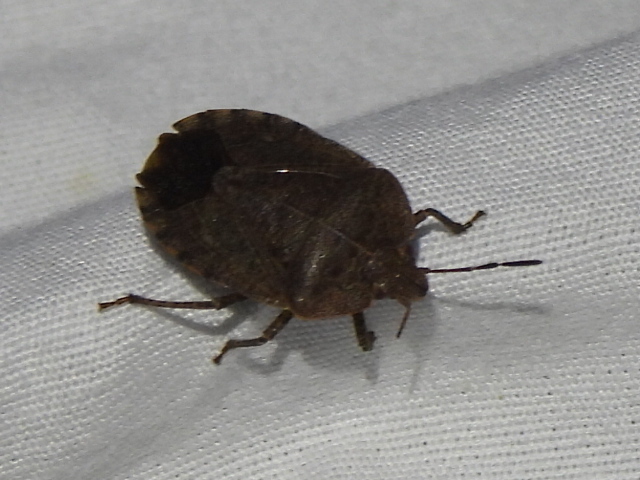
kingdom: Animalia
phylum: Arthropoda
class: Insecta
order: Hemiptera
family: Pentatomidae
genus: Menecles
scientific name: Menecles insertus
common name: Elf shoe stink bug
